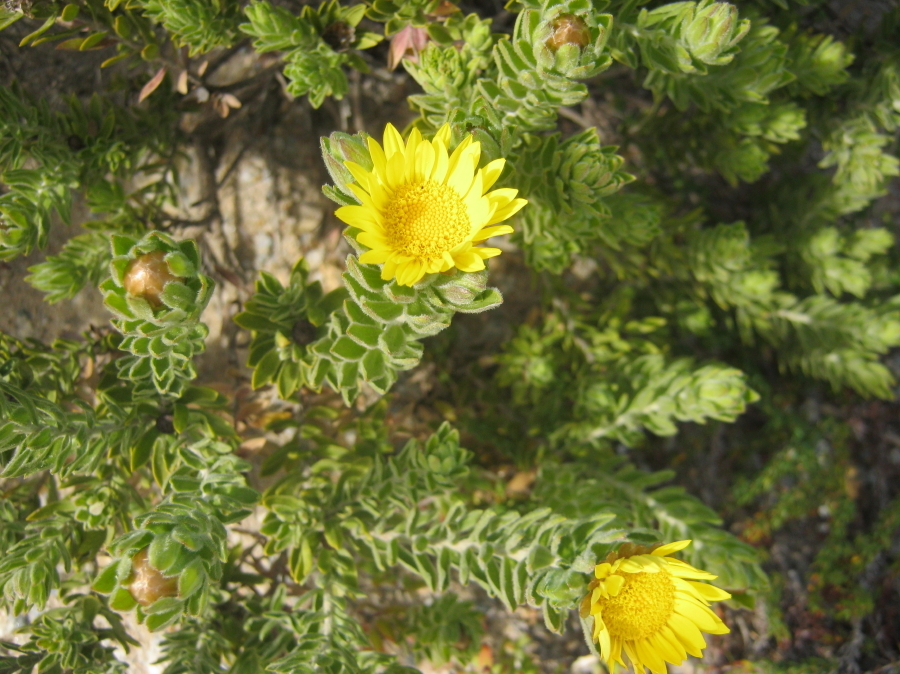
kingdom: Plantae
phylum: Tracheophyta
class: Magnoliopsida
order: Asterales
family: Asteraceae
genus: Oedera
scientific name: Oedera calycina
